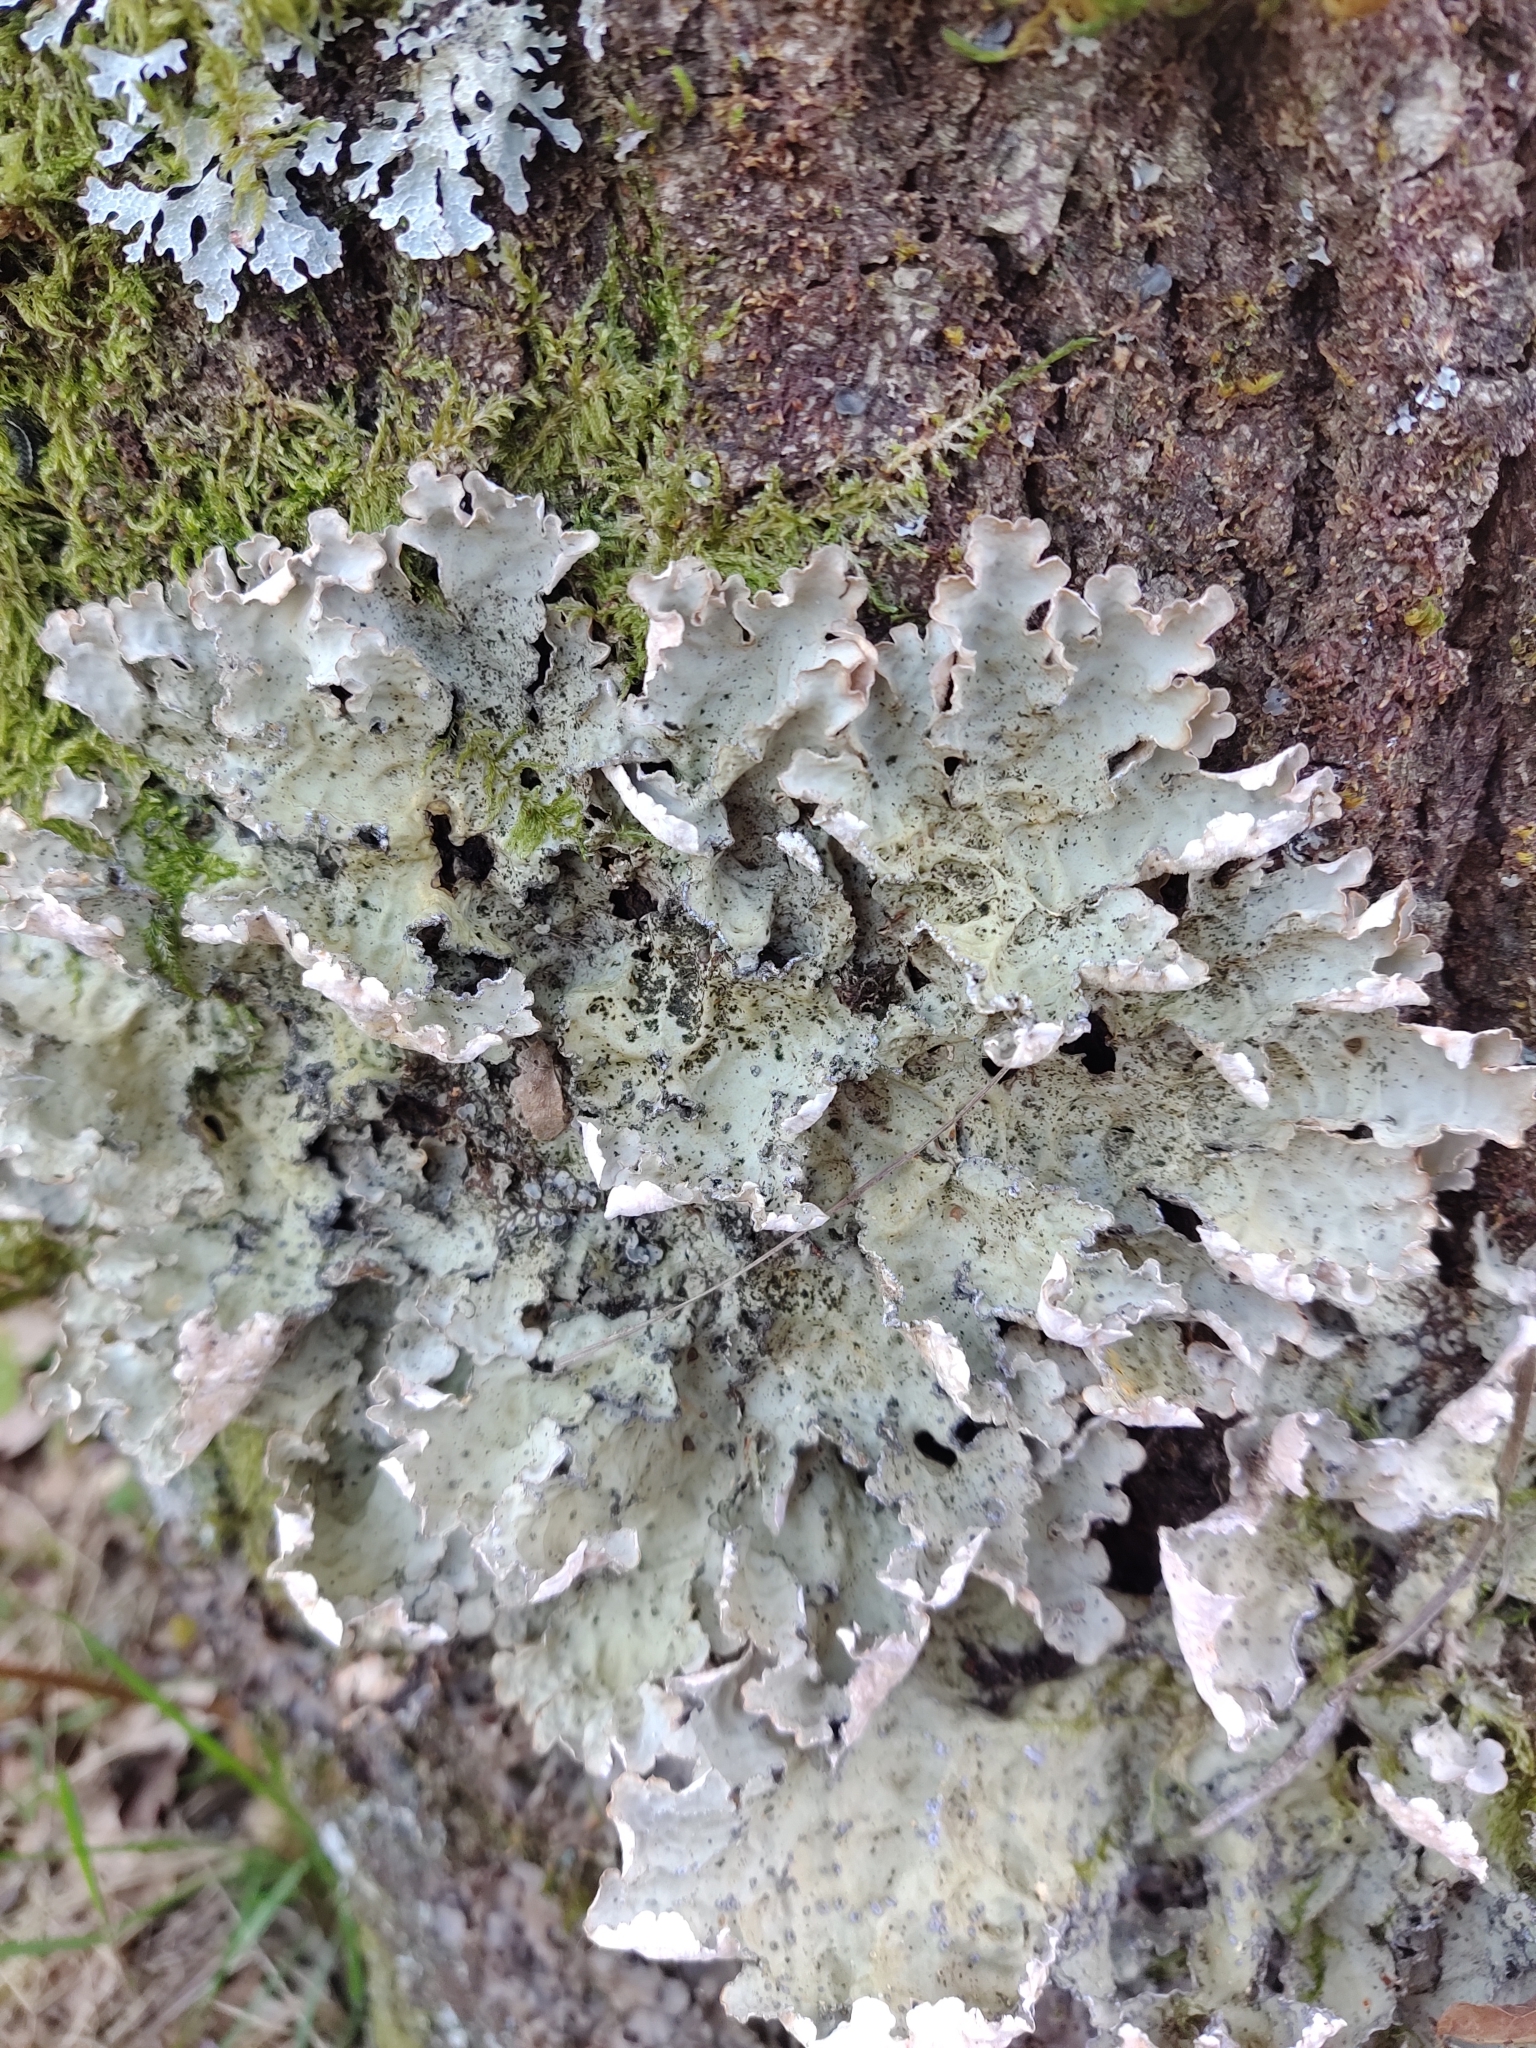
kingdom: Fungi
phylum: Ascomycota
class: Lecanoromycetes
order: Peltigerales
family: Lobariaceae
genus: Lobarina
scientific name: Lobarina scrobiculata
